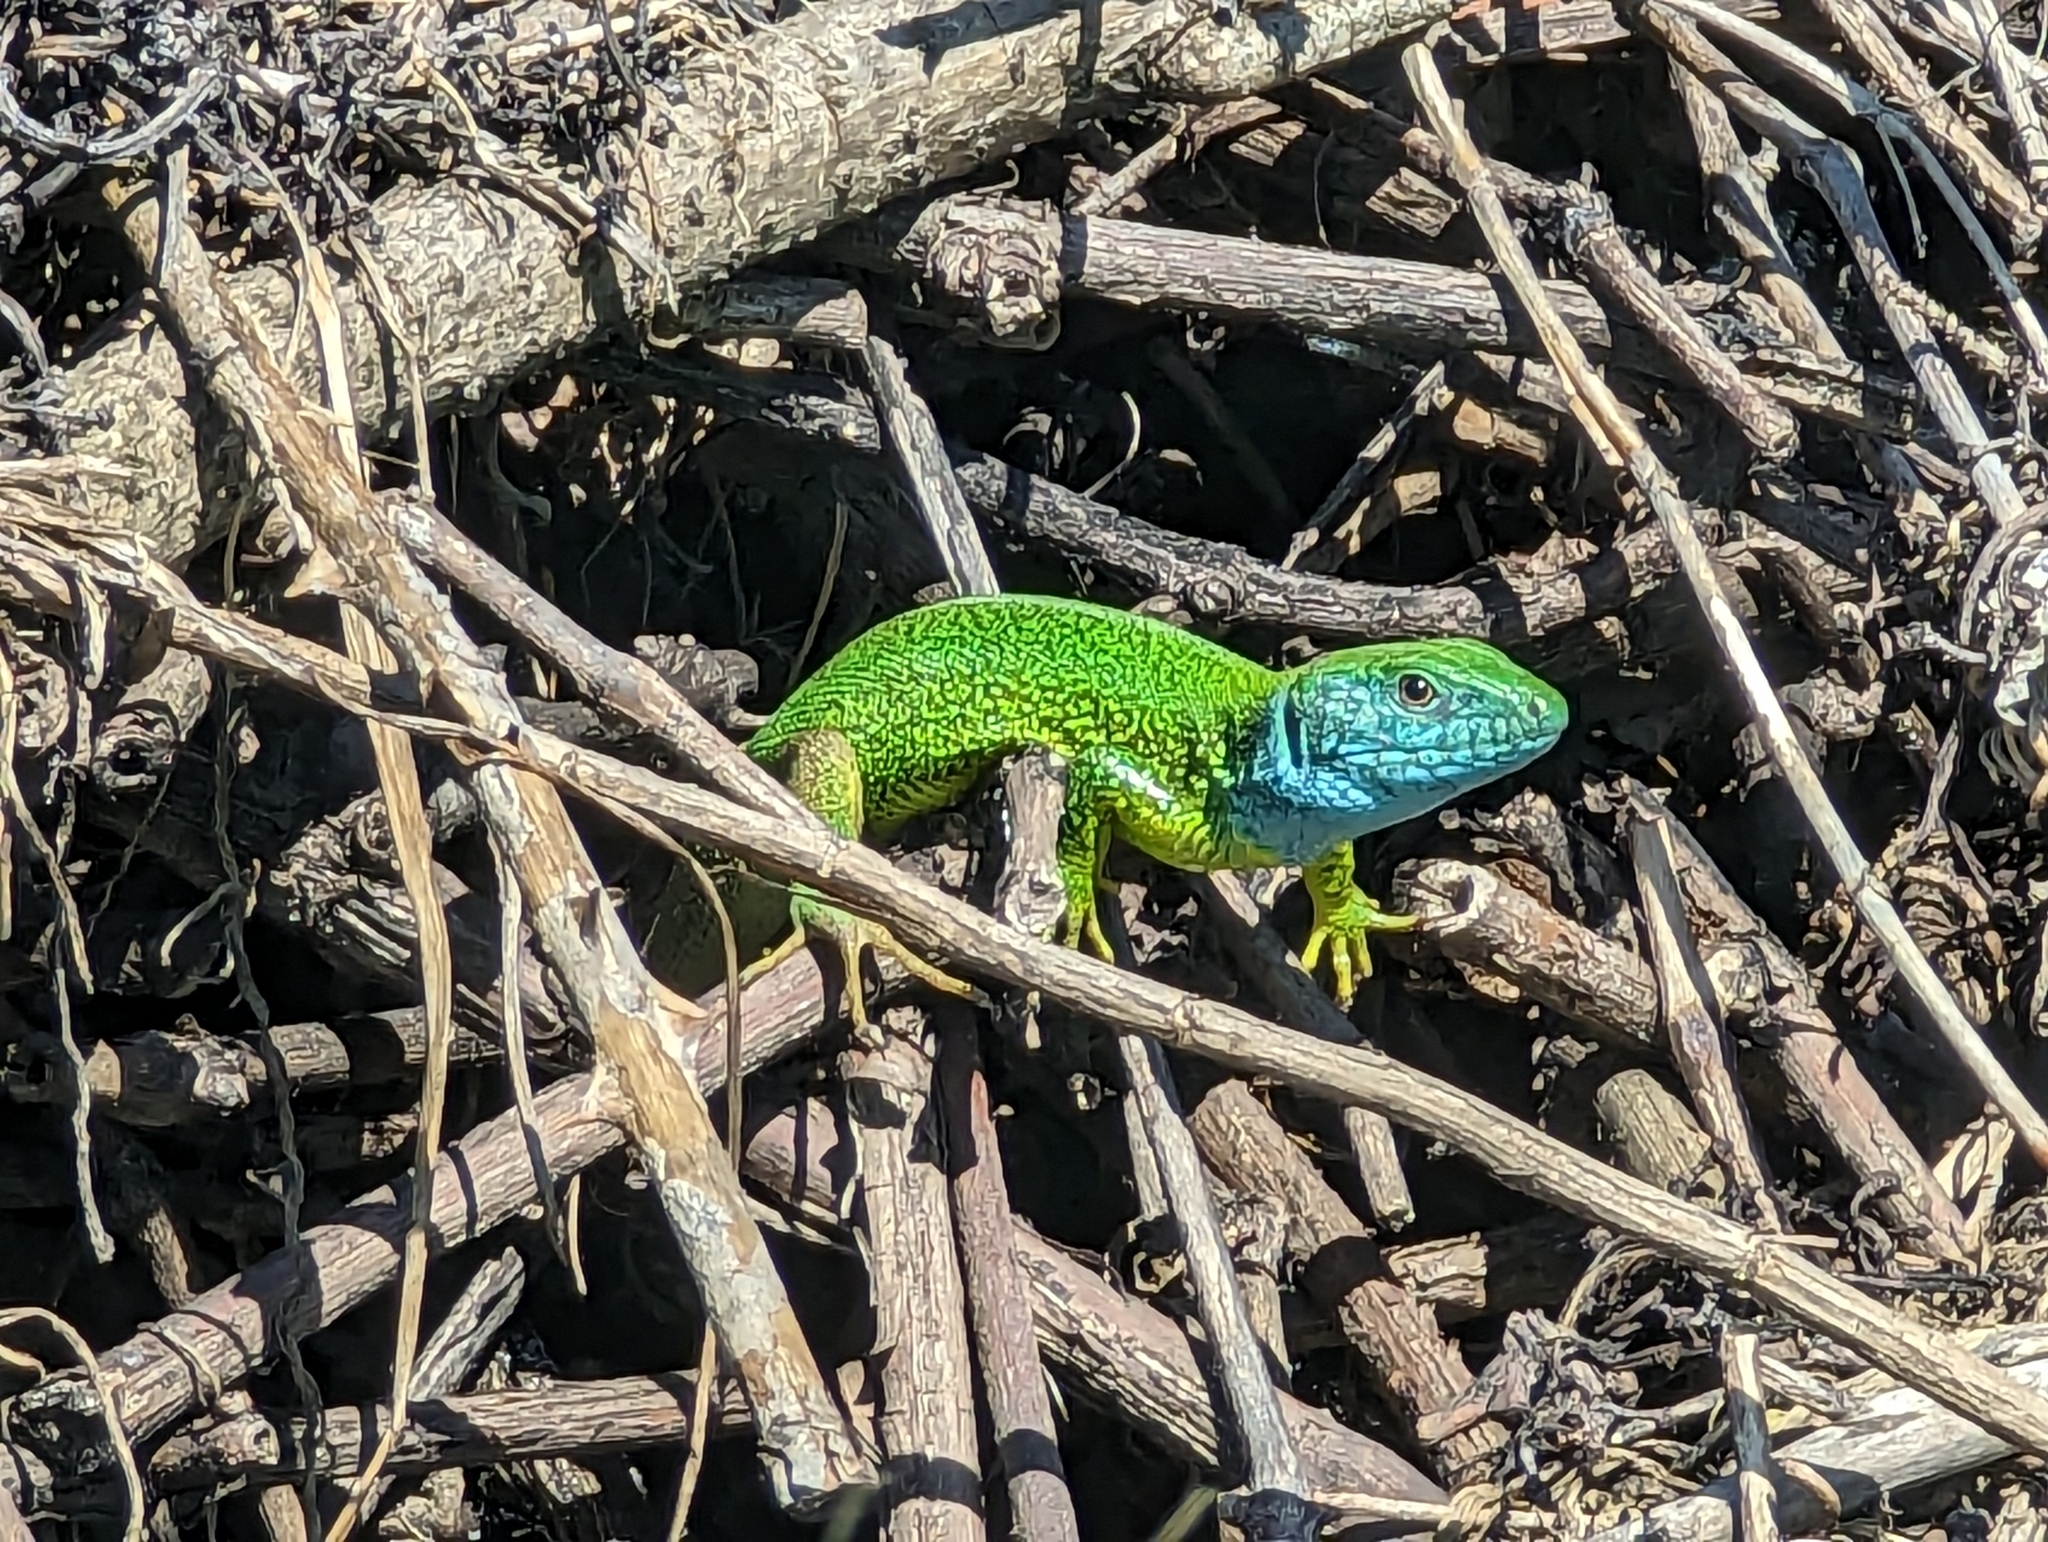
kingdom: Animalia
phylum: Chordata
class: Squamata
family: Lacertidae
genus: Lacerta
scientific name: Lacerta viridis
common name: European green lizard
